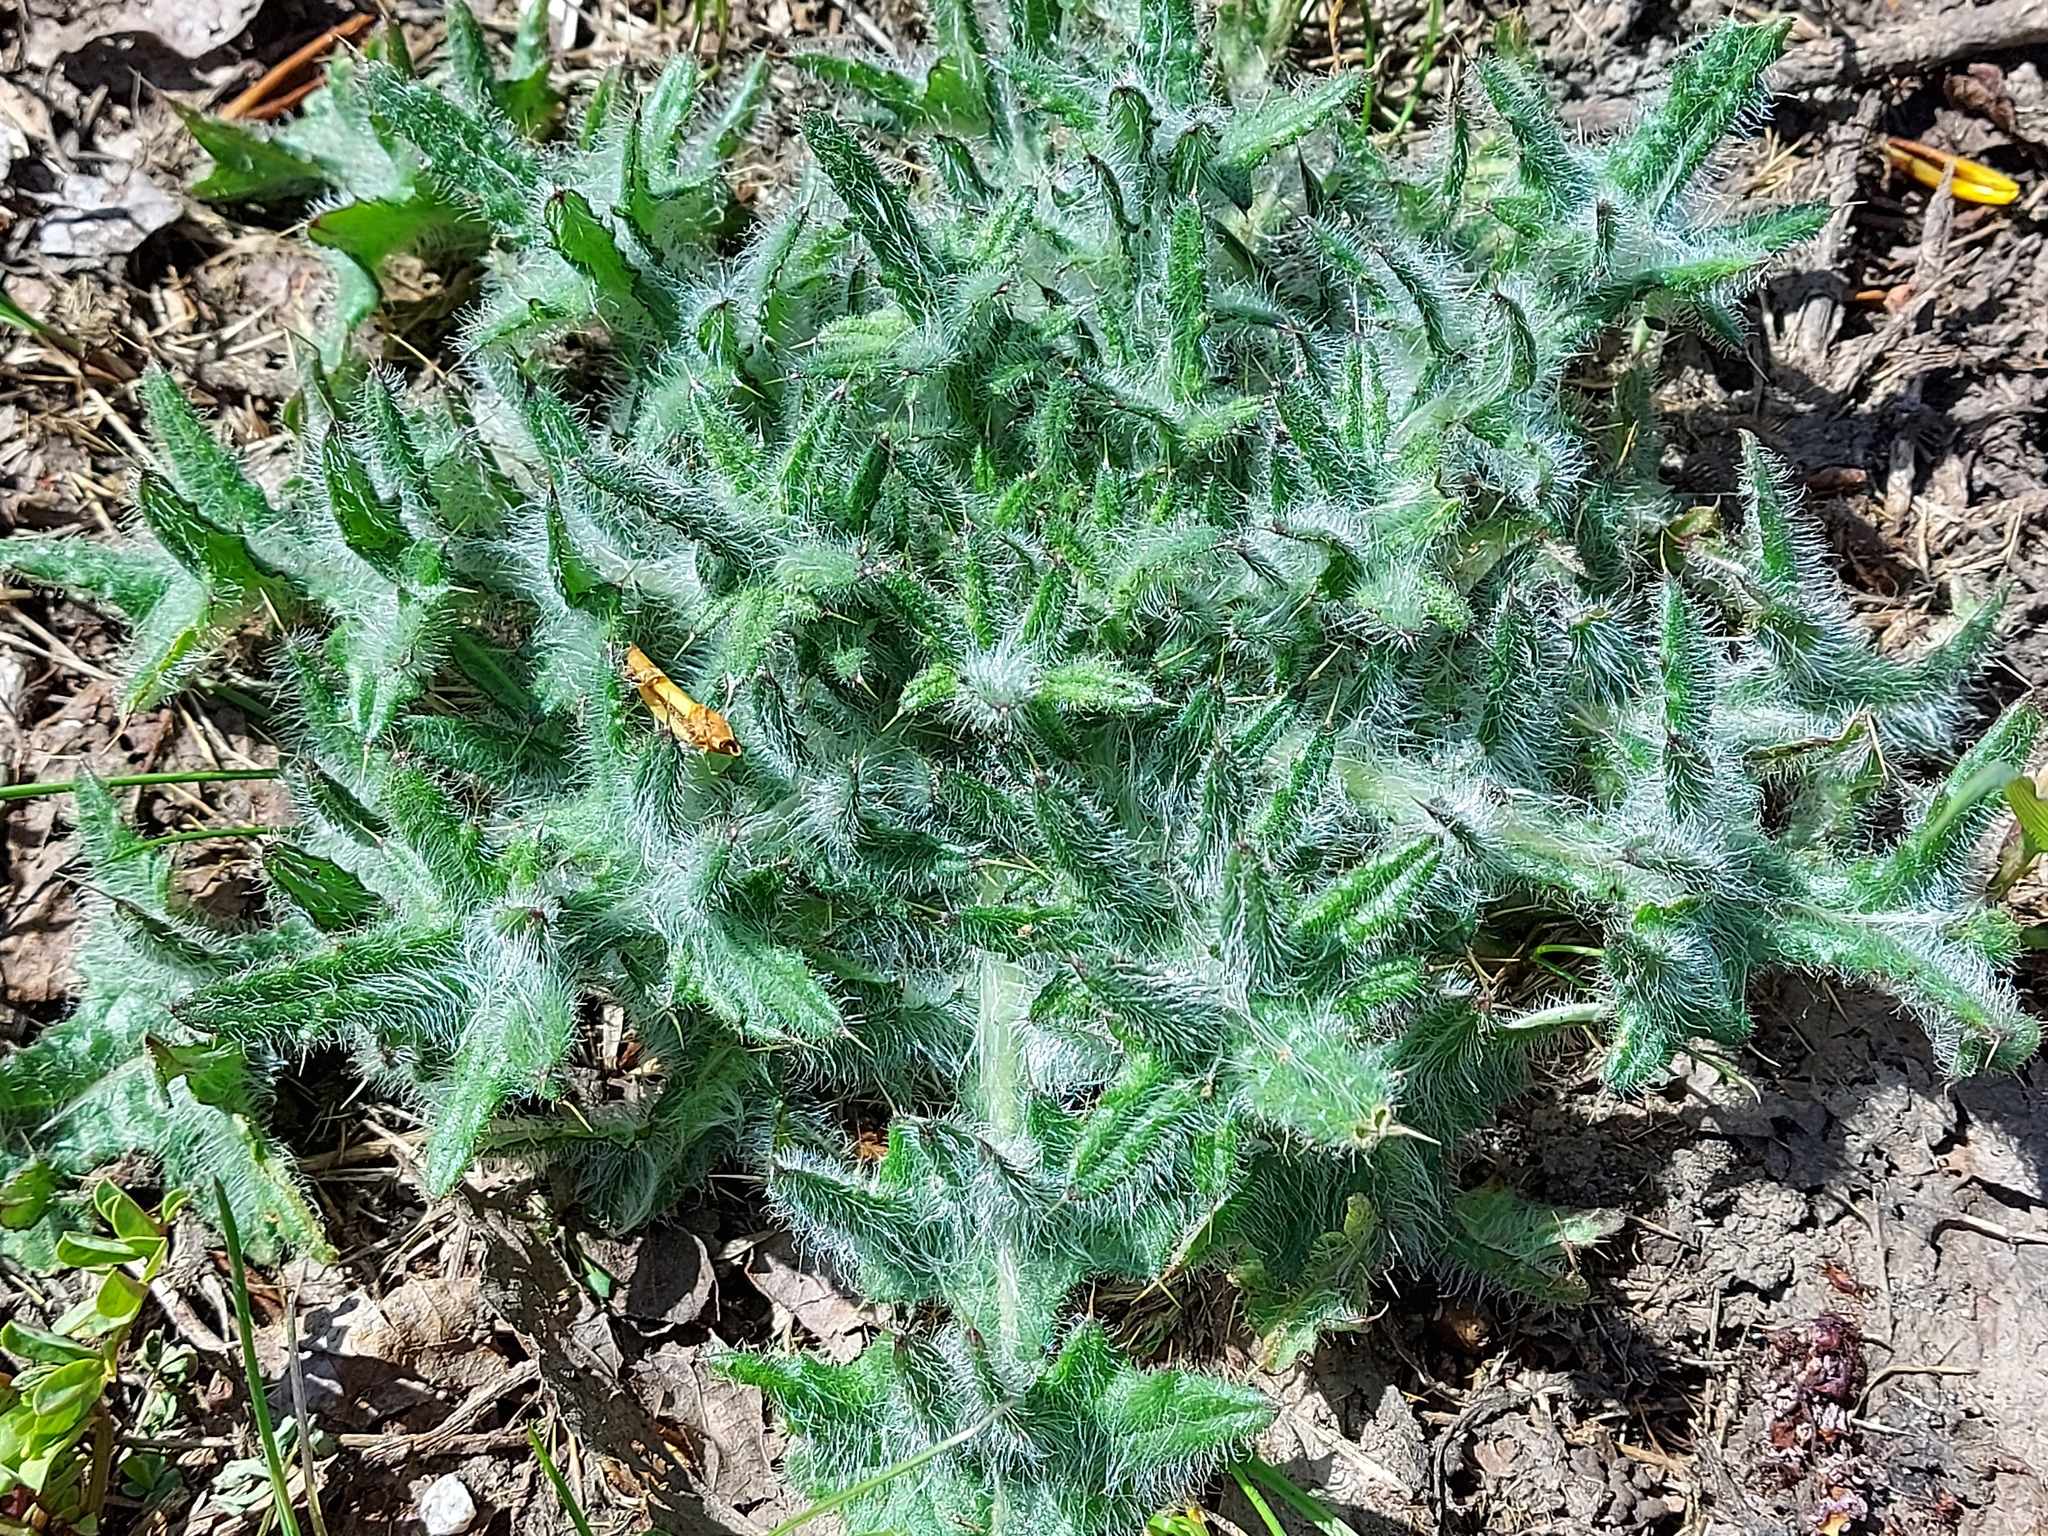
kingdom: Plantae
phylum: Tracheophyta
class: Magnoliopsida
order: Asterales
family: Asteraceae
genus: Cirsium
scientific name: Cirsium vulgare
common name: Bull thistle
